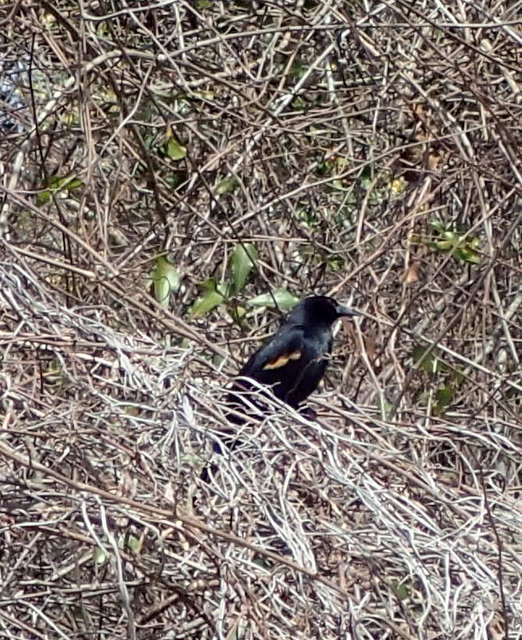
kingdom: Animalia
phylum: Chordata
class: Aves
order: Passeriformes
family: Icteridae
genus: Agelaius
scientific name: Agelaius phoeniceus
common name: Red-winged blackbird
